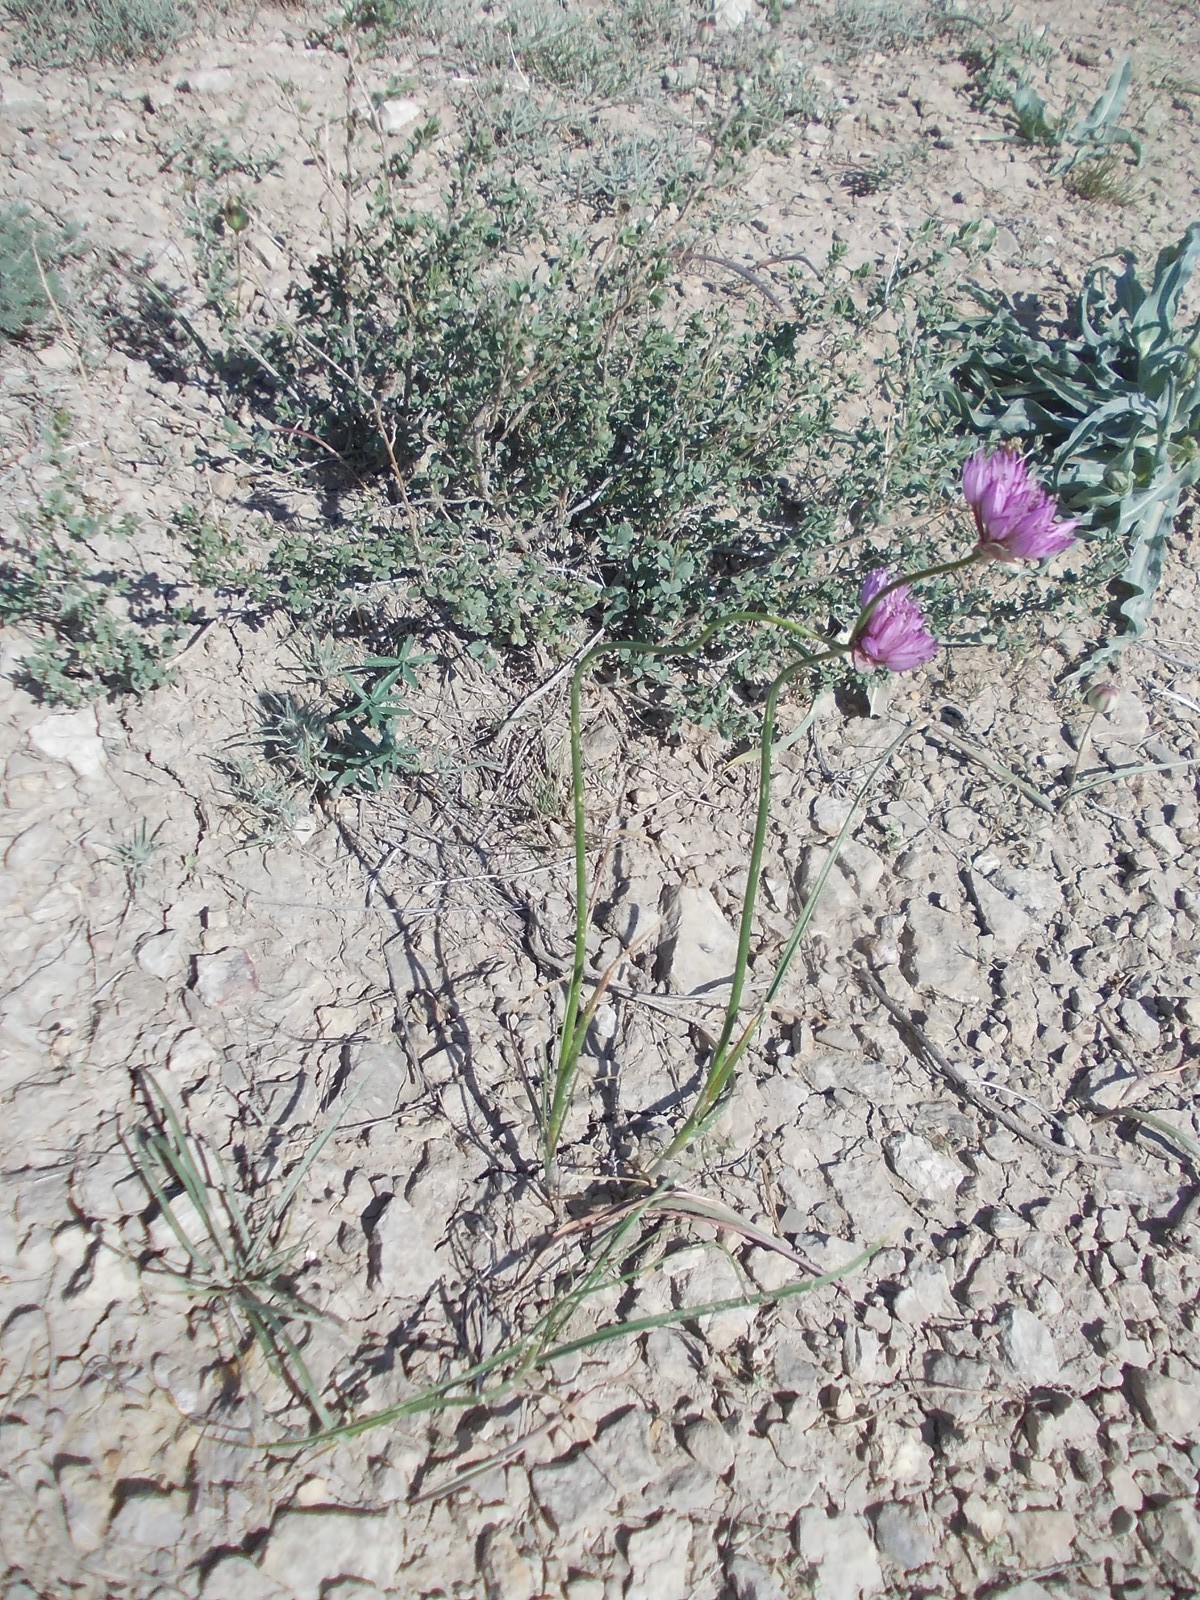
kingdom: Plantae
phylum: Tracheophyta
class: Liliopsida
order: Asparagales
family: Amaryllidaceae
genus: Allium
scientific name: Allium inderiense
